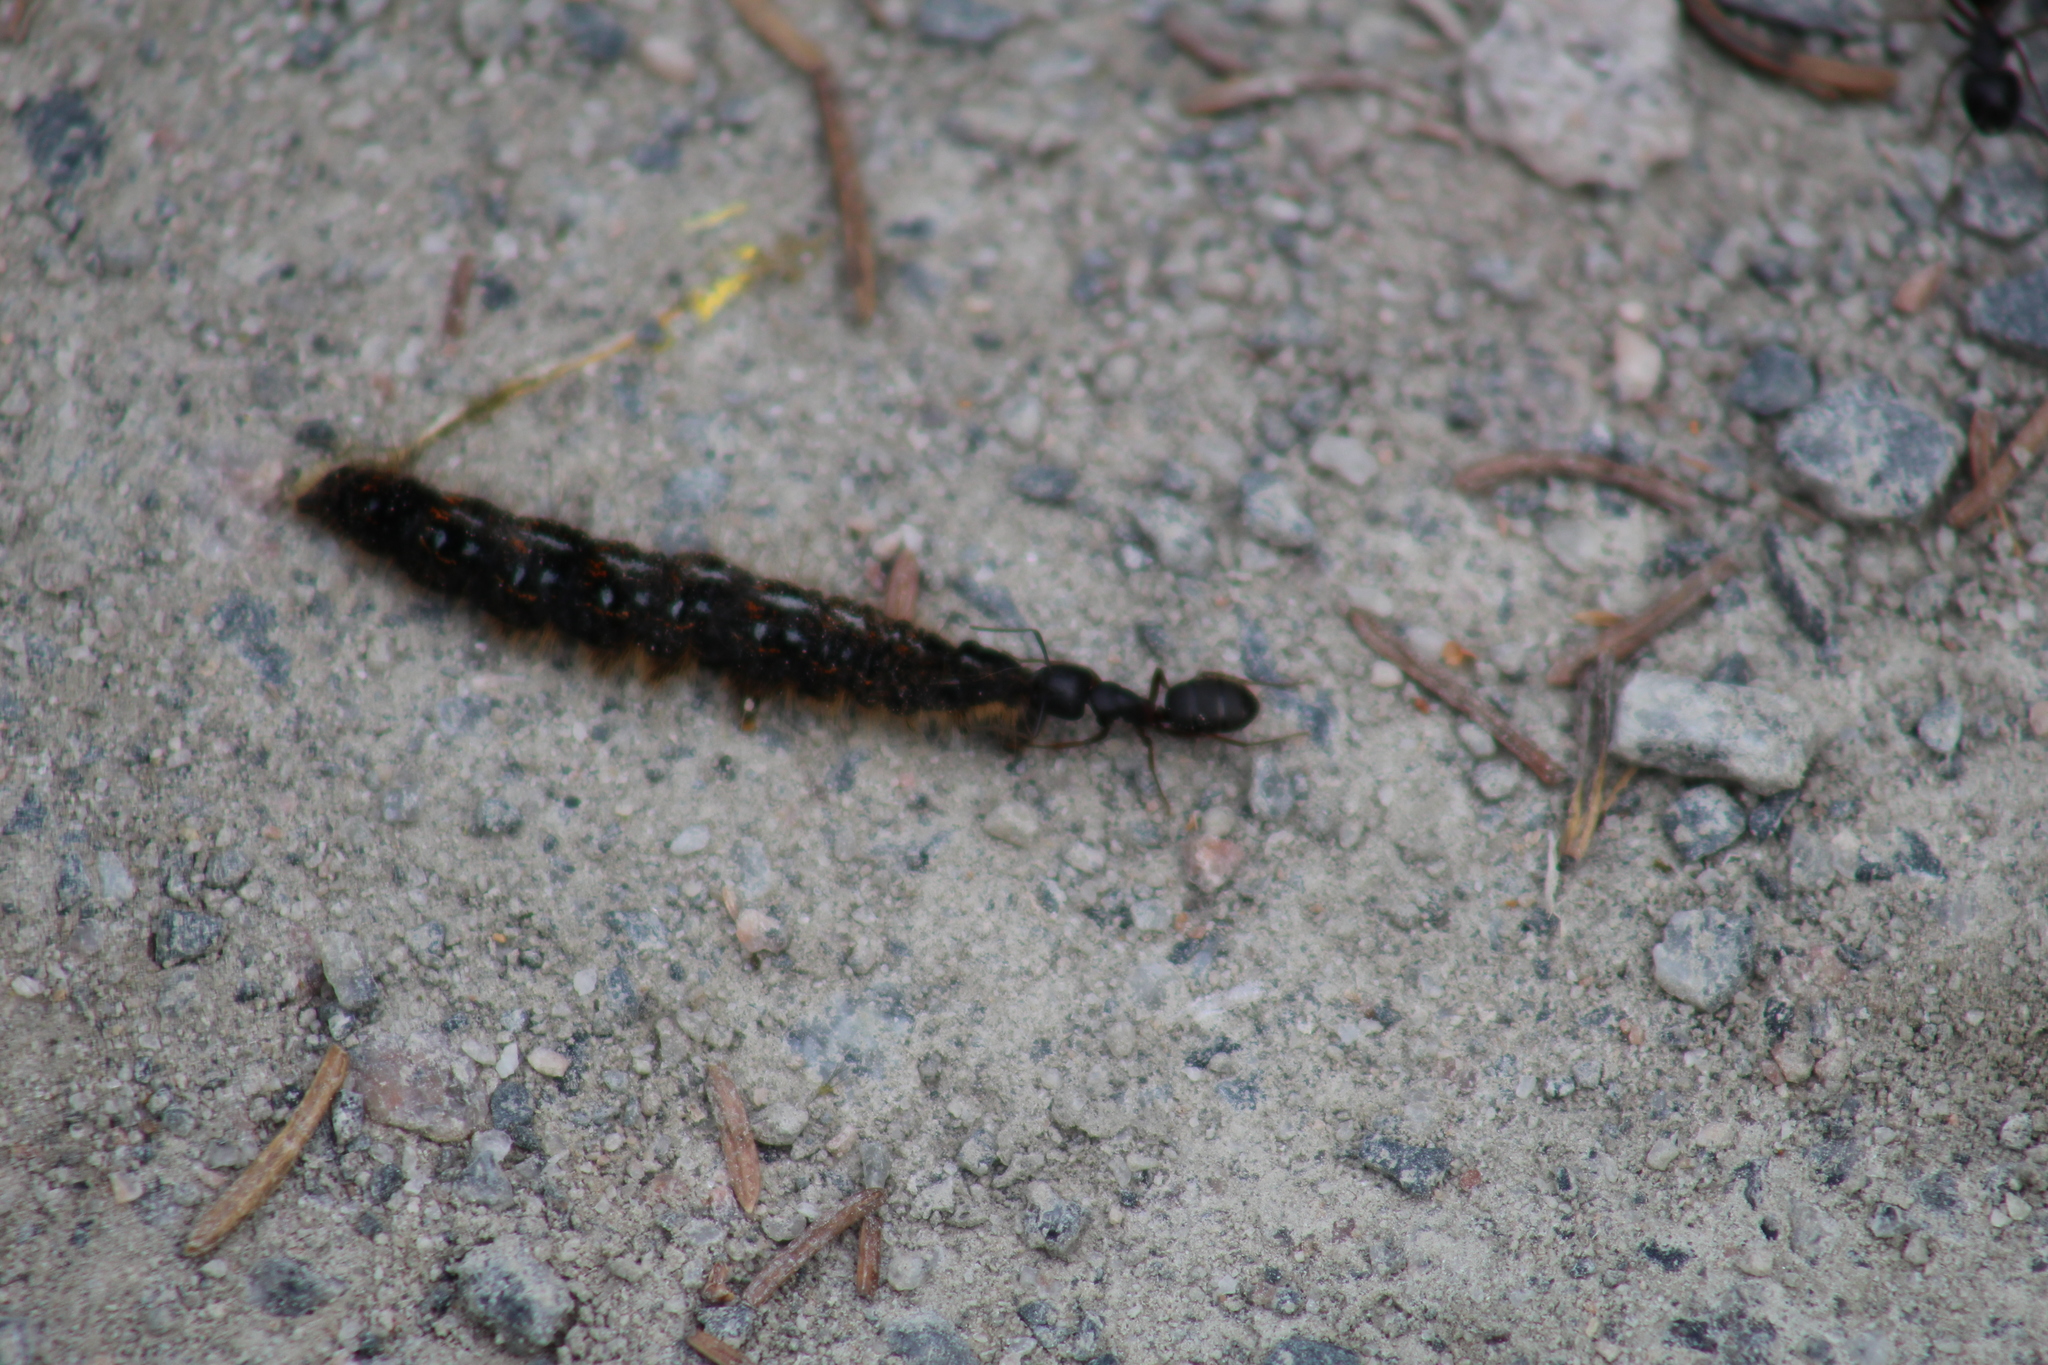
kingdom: Animalia
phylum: Arthropoda
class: Insecta
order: Lepidoptera
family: Lasiocampidae
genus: Malacosoma
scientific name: Malacosoma californica
